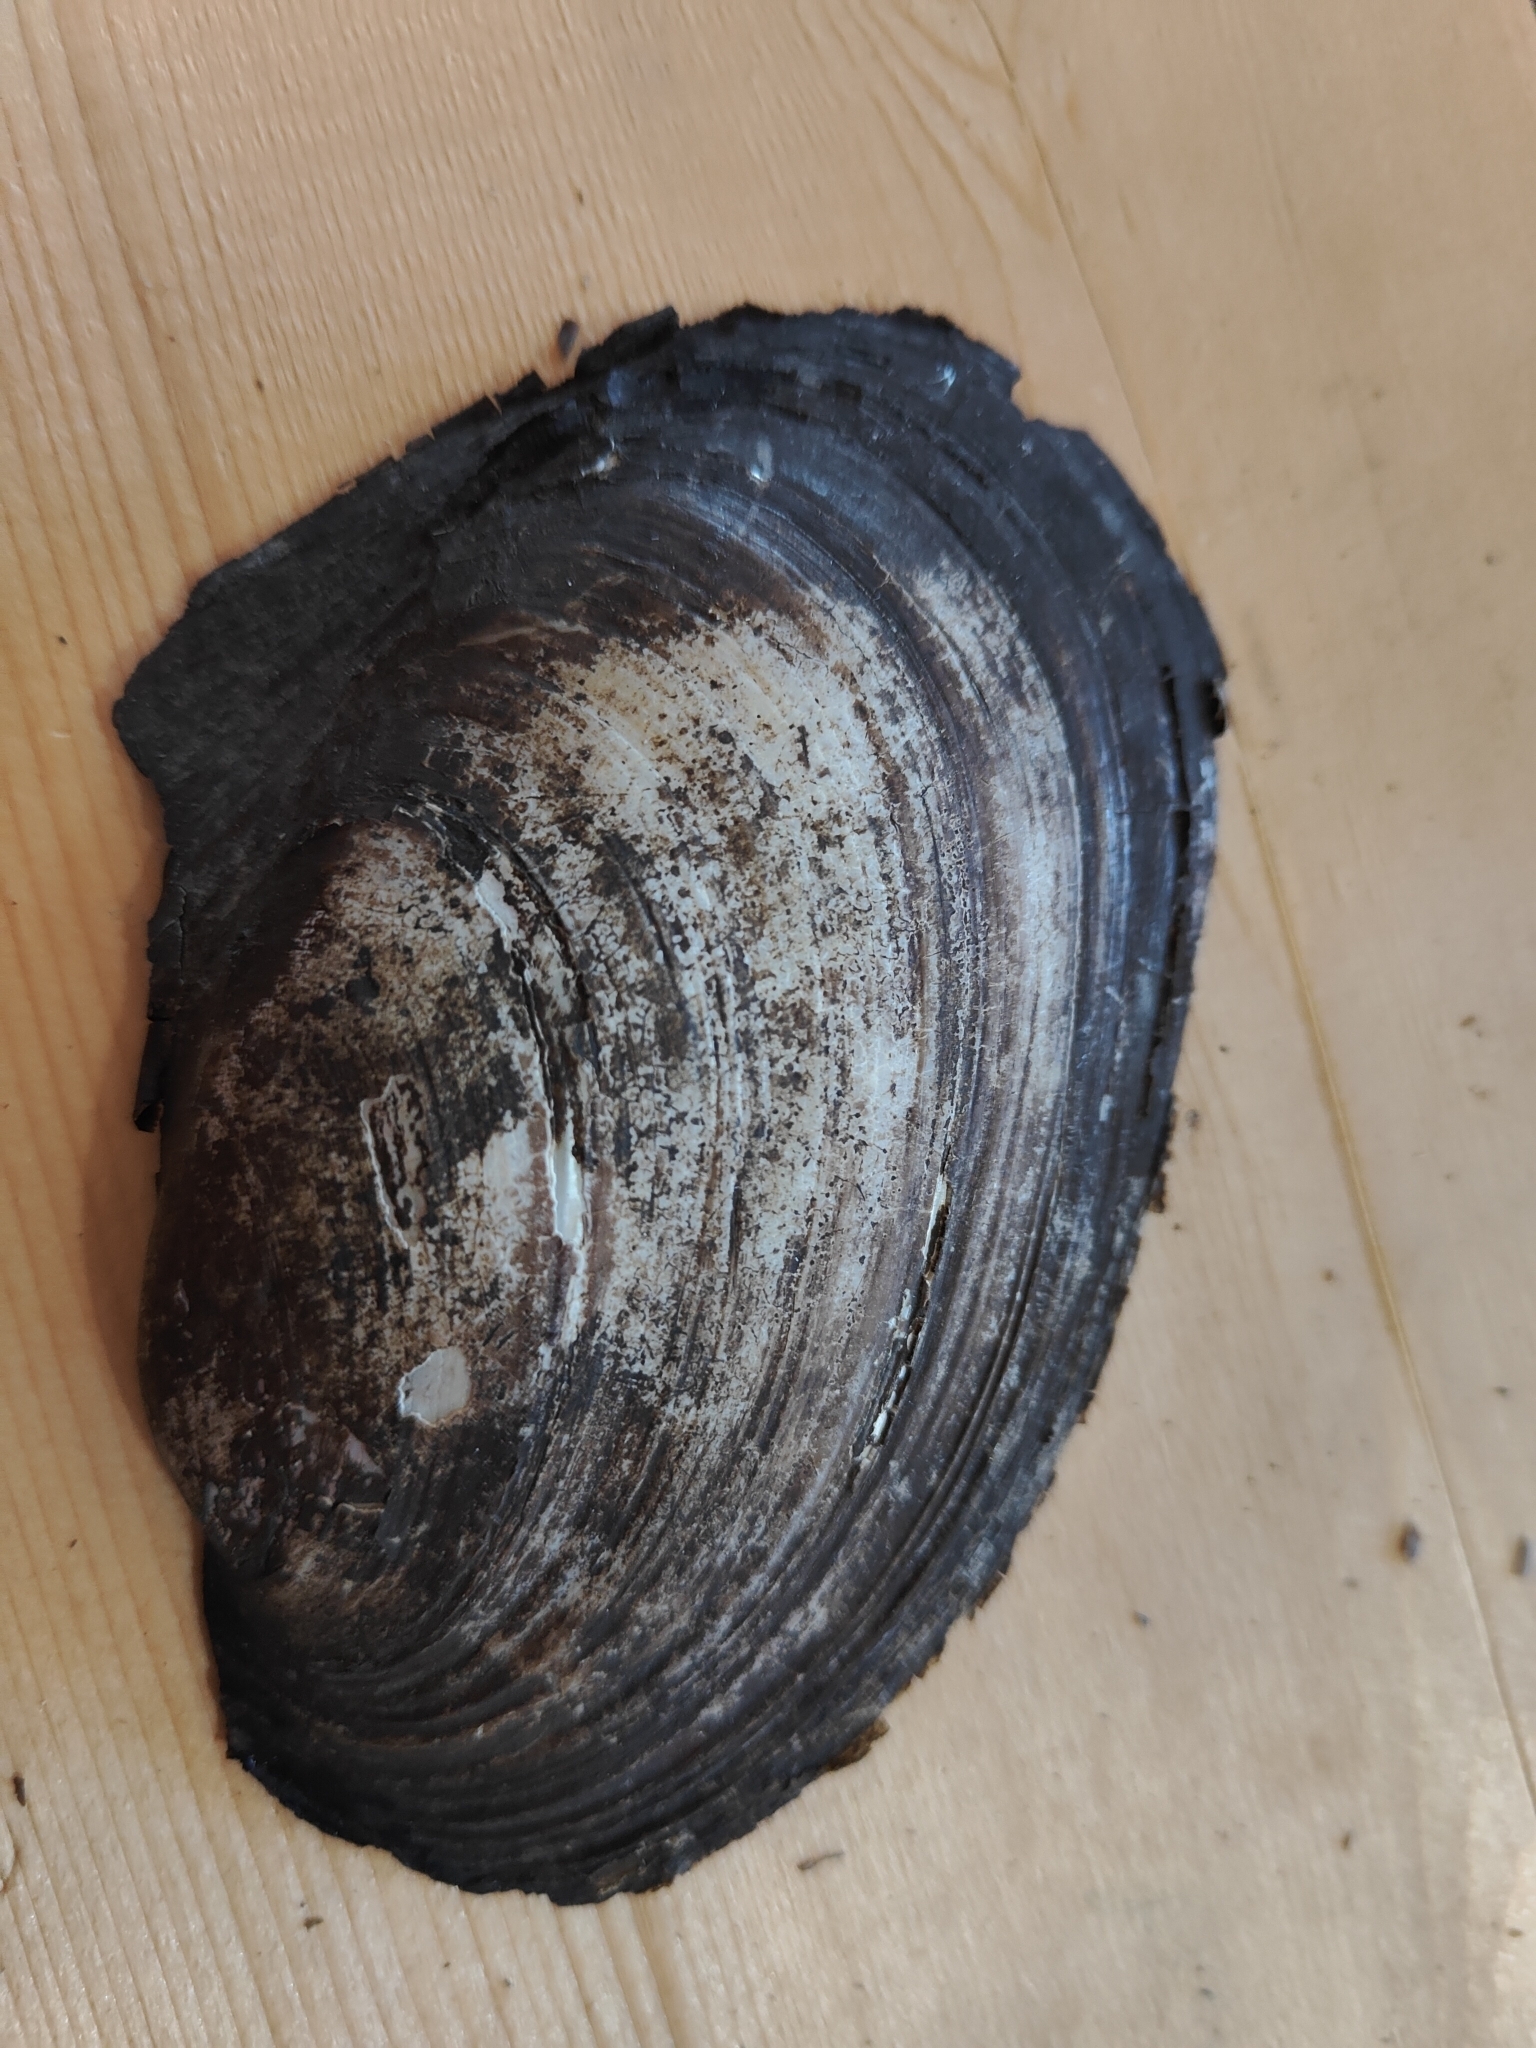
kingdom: Animalia
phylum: Mollusca
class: Bivalvia
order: Unionida
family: Unionidae
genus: Potamilus
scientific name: Potamilus fragilis
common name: Fragile papershell
